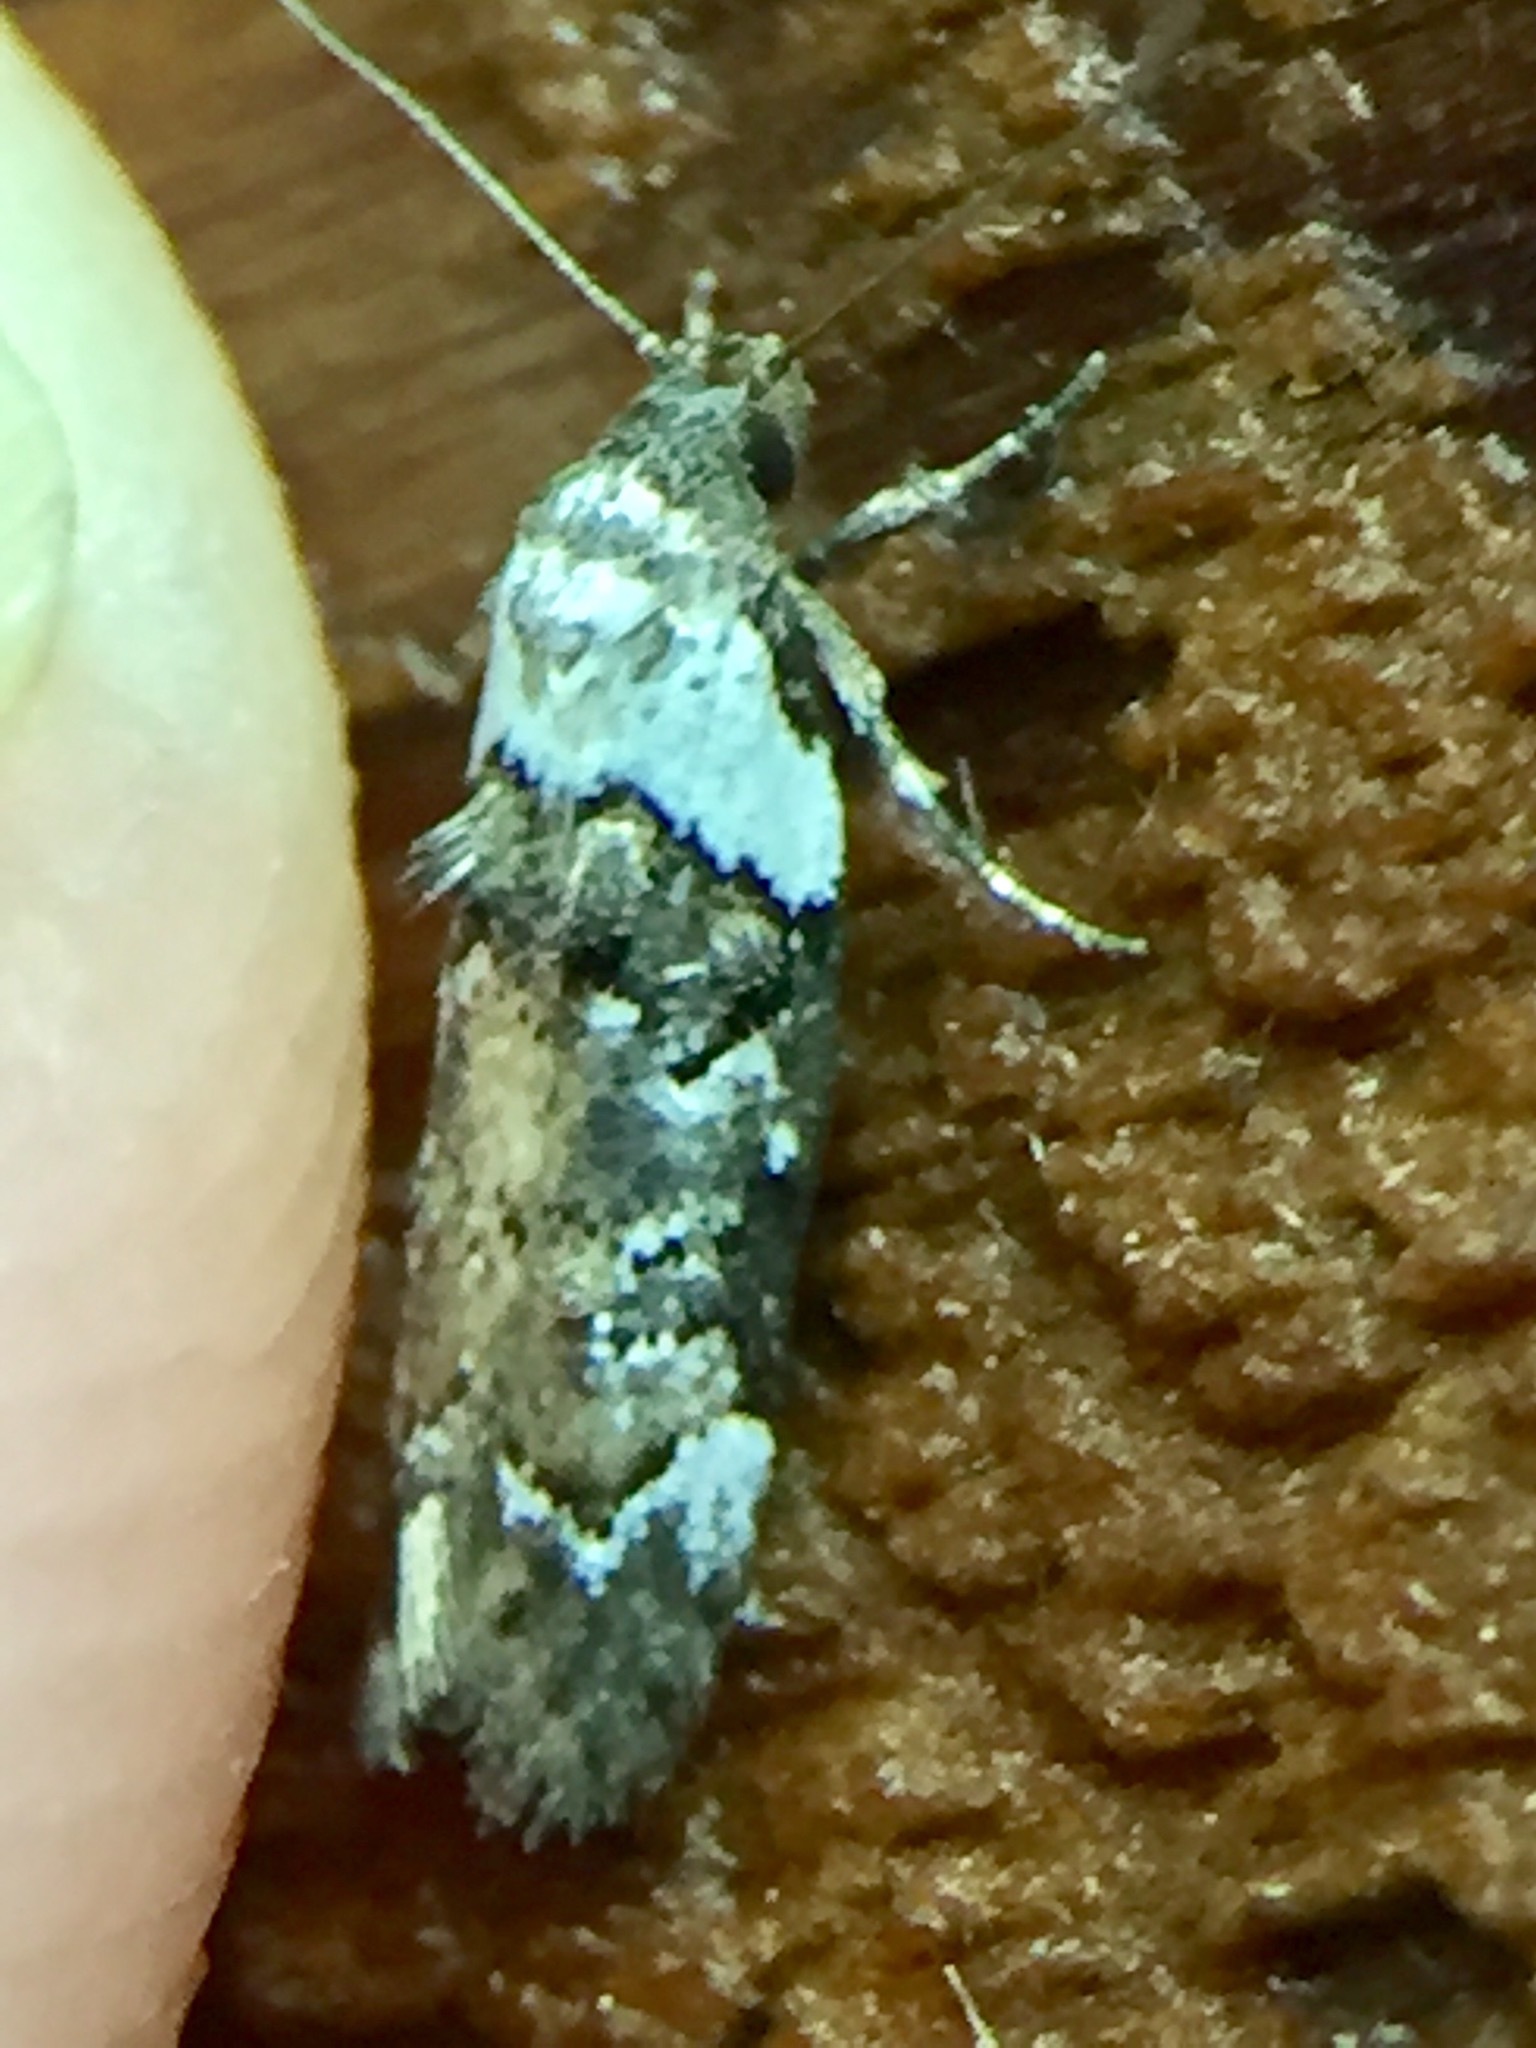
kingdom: Animalia
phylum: Arthropoda
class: Insecta
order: Lepidoptera
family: Oecophoridae
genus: Trachypepla
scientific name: Trachypepla conspicuella
